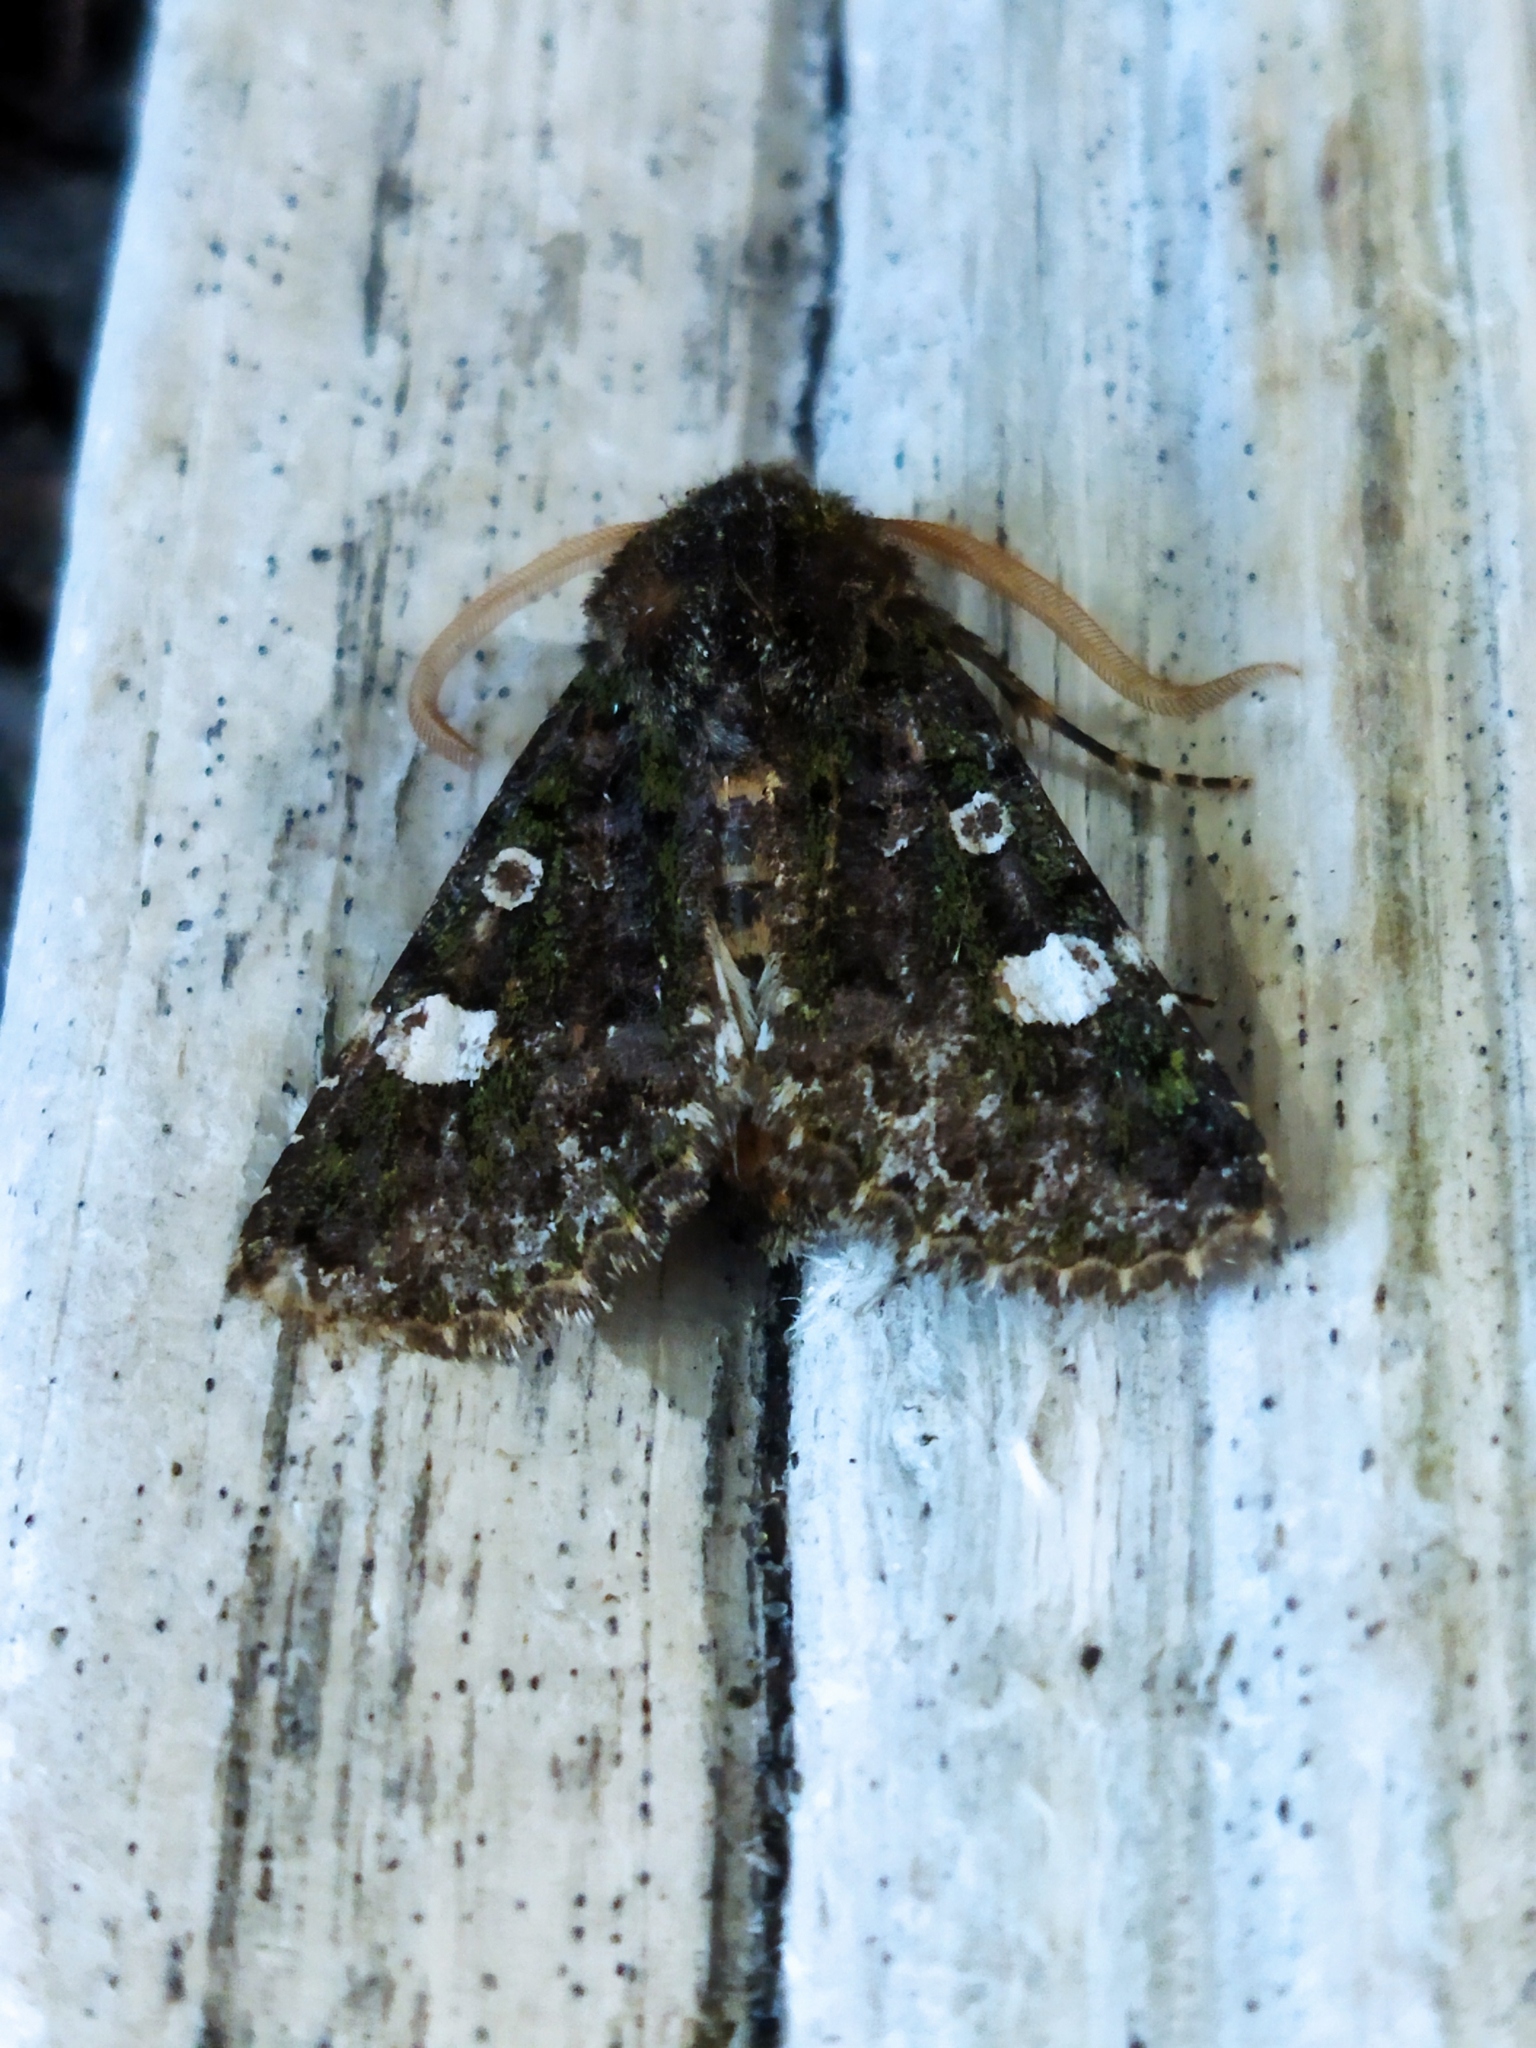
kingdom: Animalia
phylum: Arthropoda
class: Insecta
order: Lepidoptera
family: Noctuidae
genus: Valeria
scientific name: Valeria oleagina
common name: Green-brindled dot
